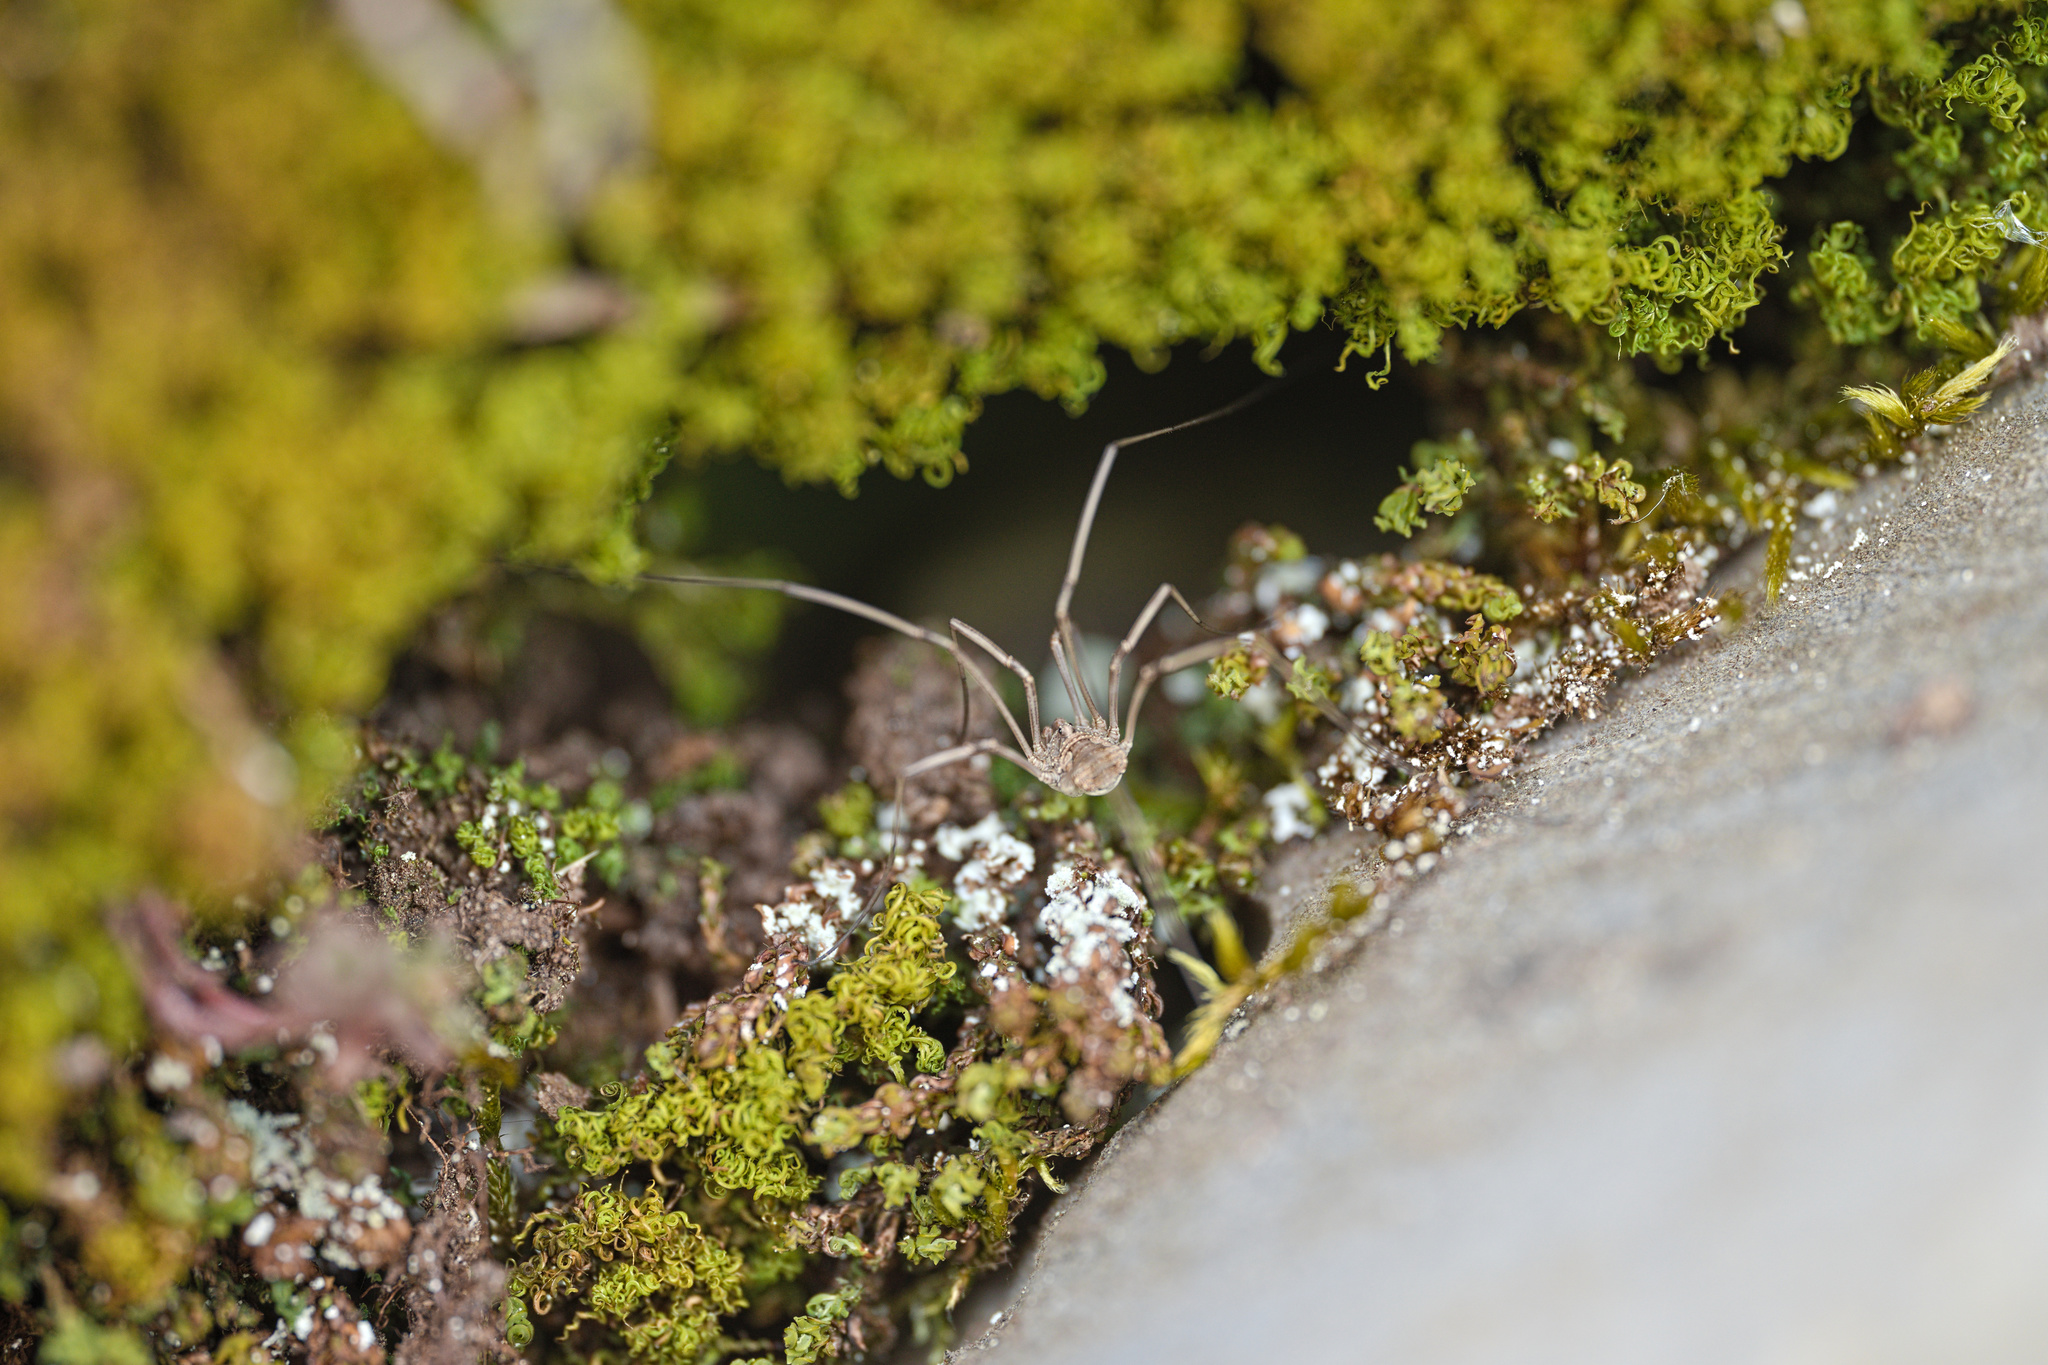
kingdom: Animalia
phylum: Arthropoda
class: Arachnida
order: Opiliones
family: Phalangiidae
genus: Phalangium
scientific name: Phalangium opilio
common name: Daddy longleg
